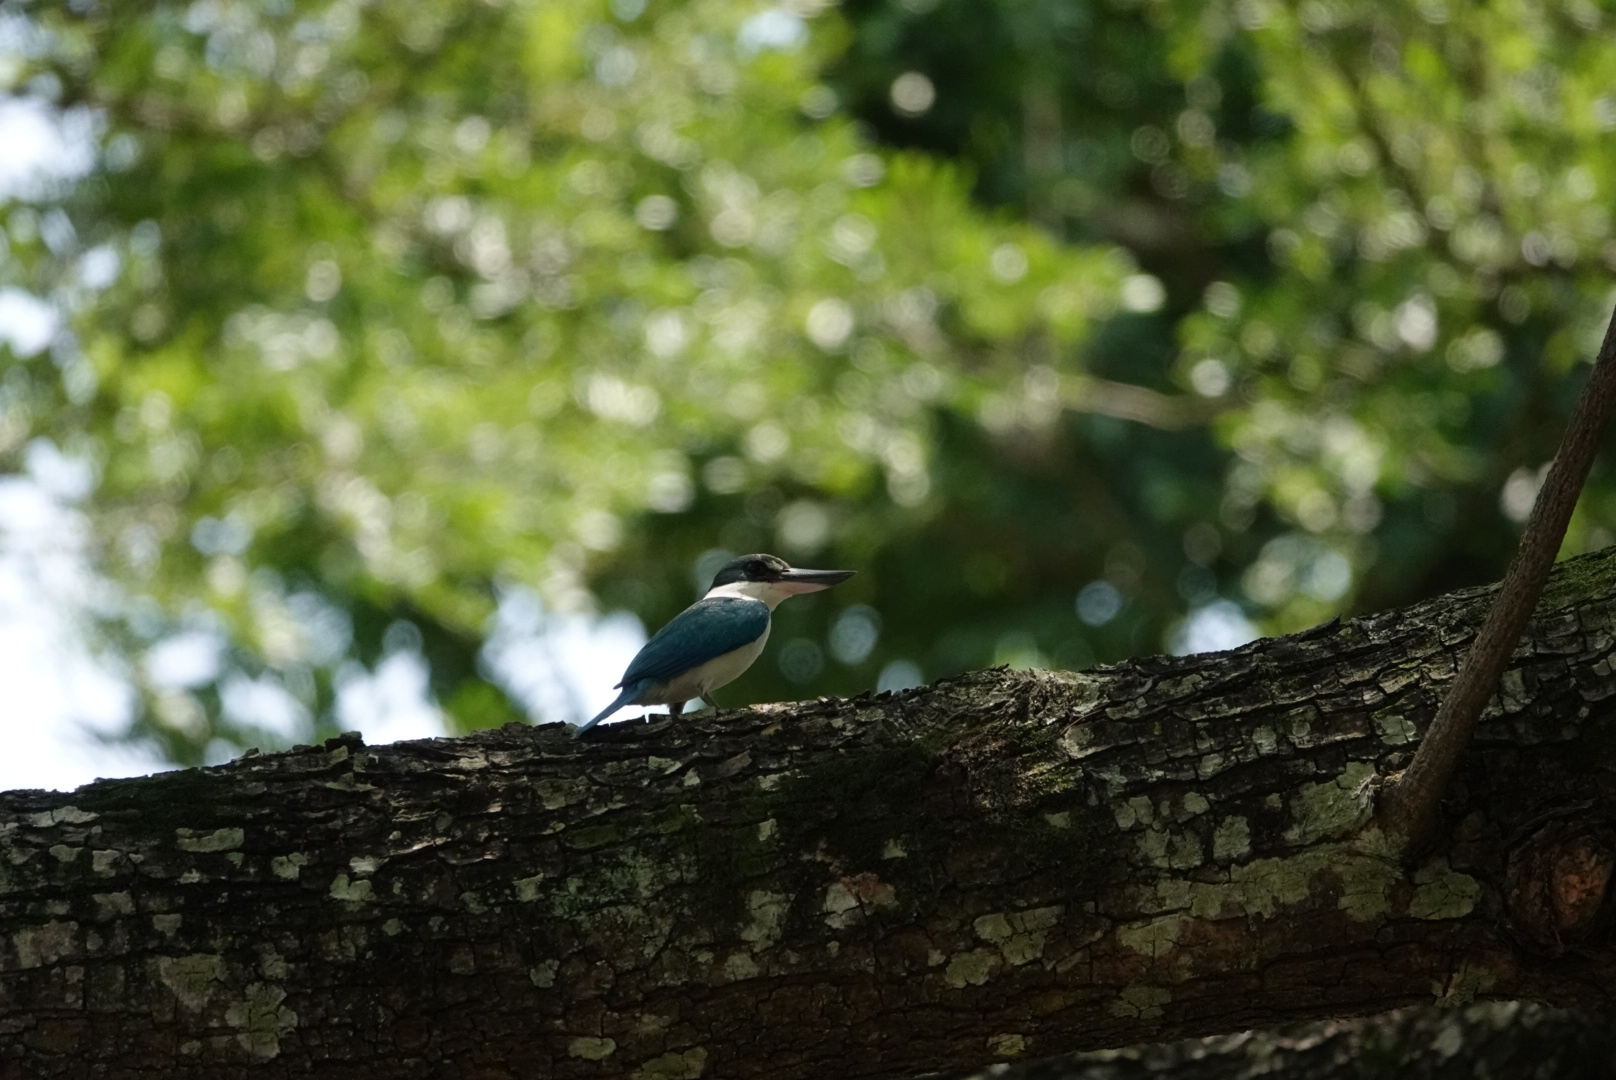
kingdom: Animalia
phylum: Chordata
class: Aves
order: Coraciiformes
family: Alcedinidae
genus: Todiramphus
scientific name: Todiramphus chloris
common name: Collared kingfisher
